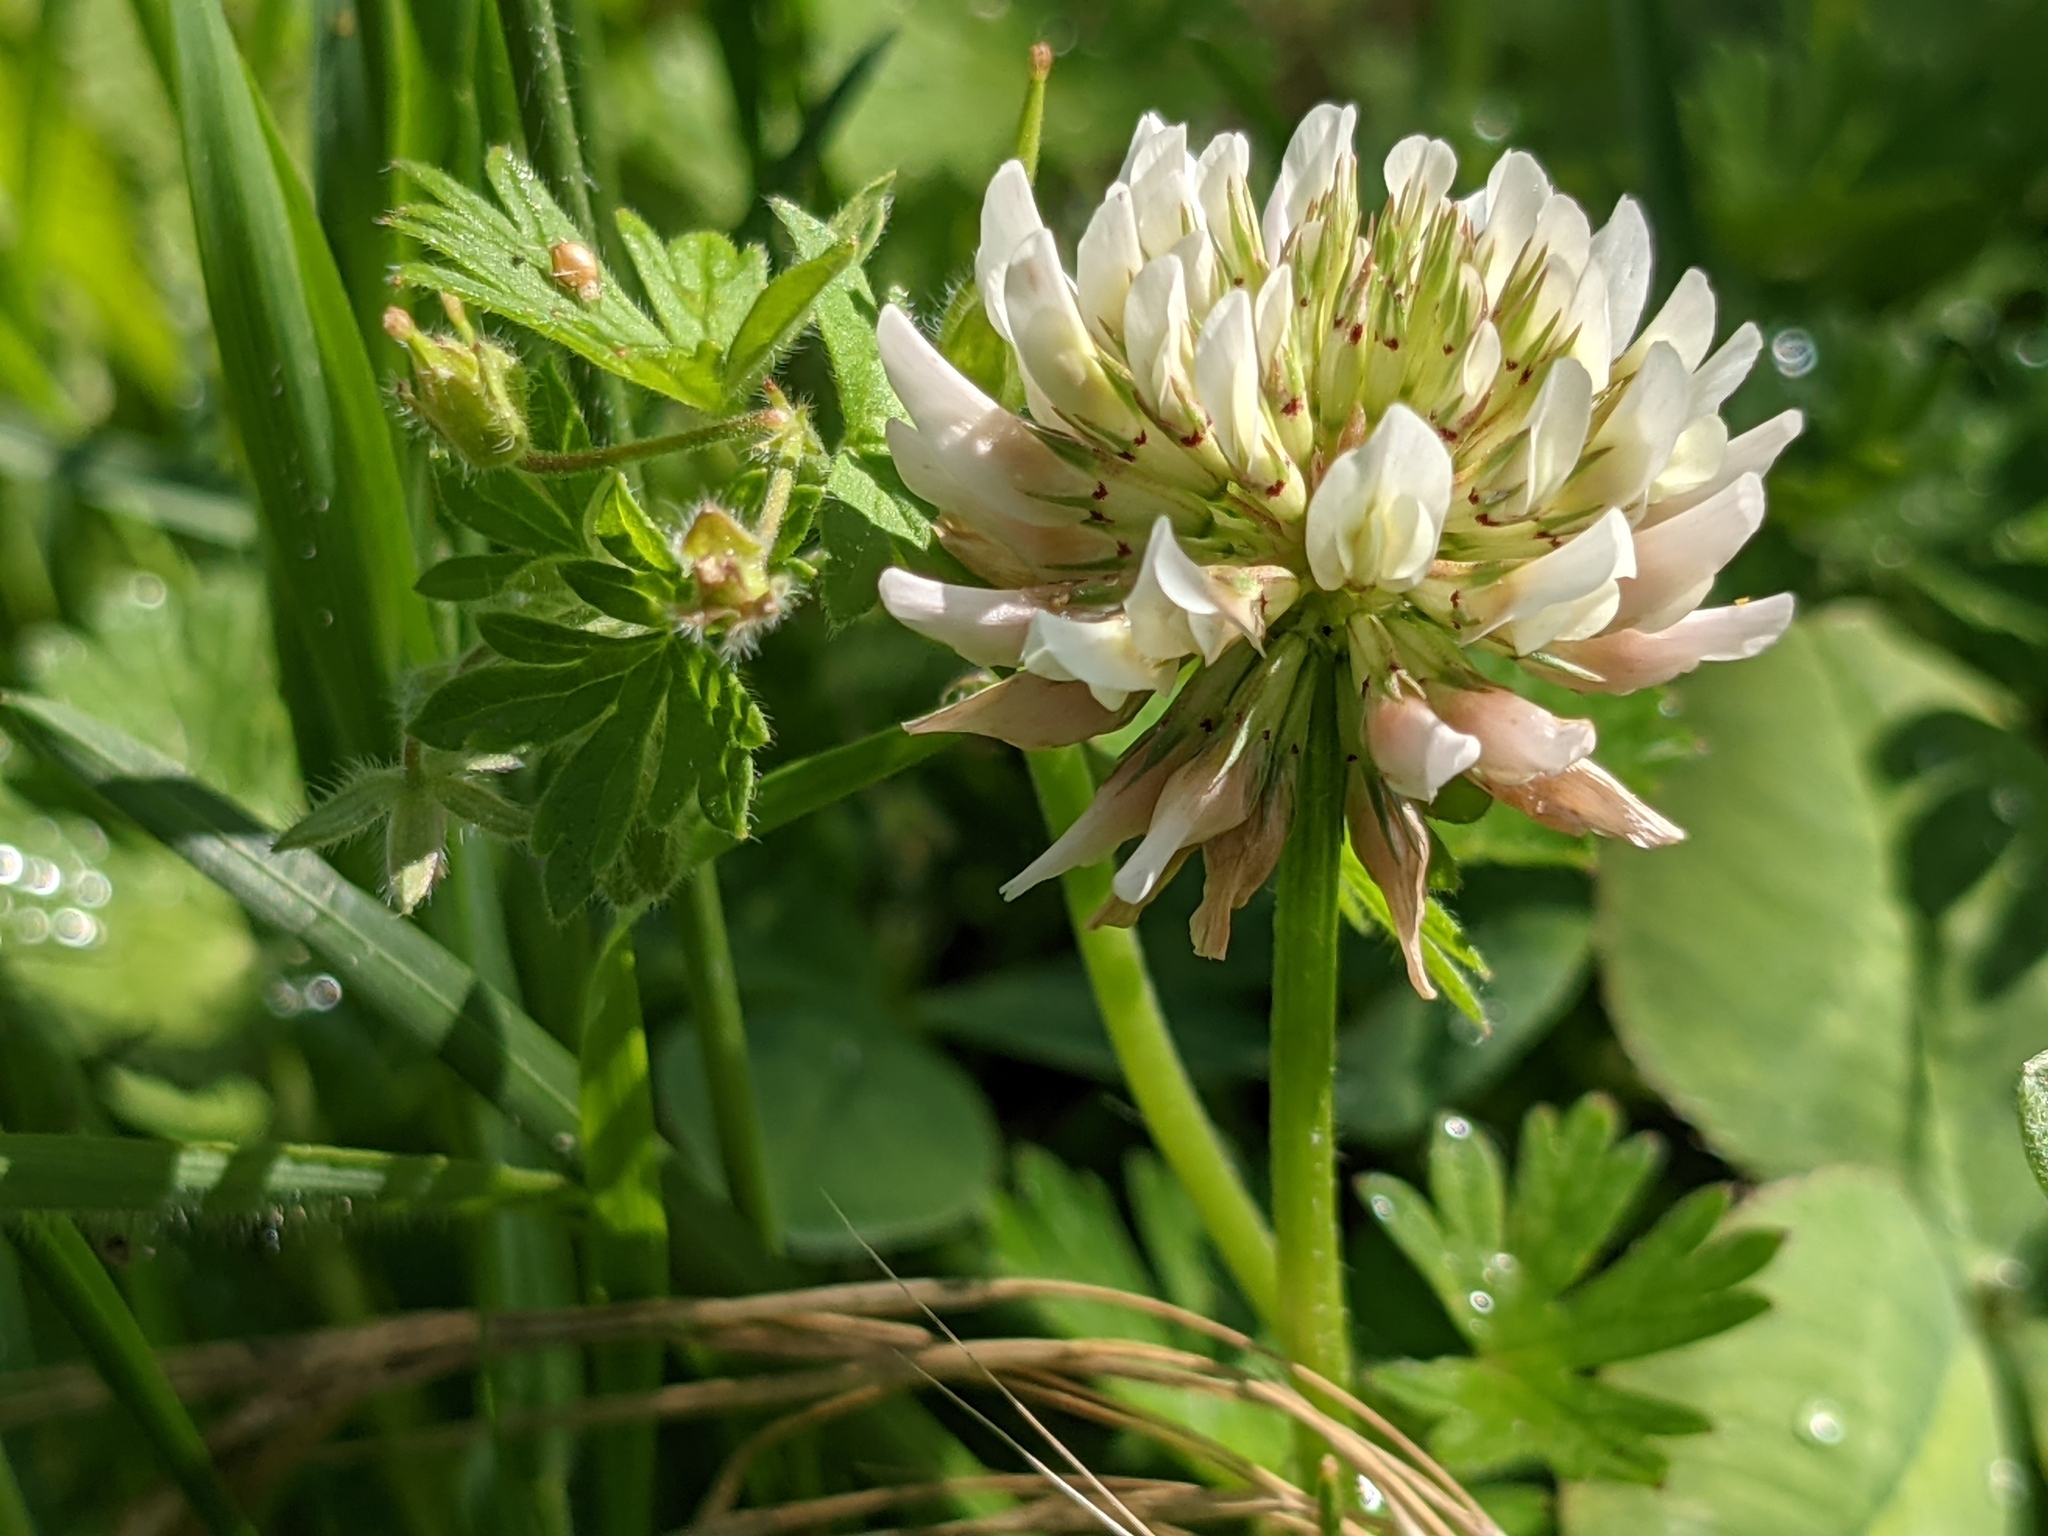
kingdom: Plantae
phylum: Tracheophyta
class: Magnoliopsida
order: Fabales
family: Fabaceae
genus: Trifolium
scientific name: Trifolium repens
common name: White clover
